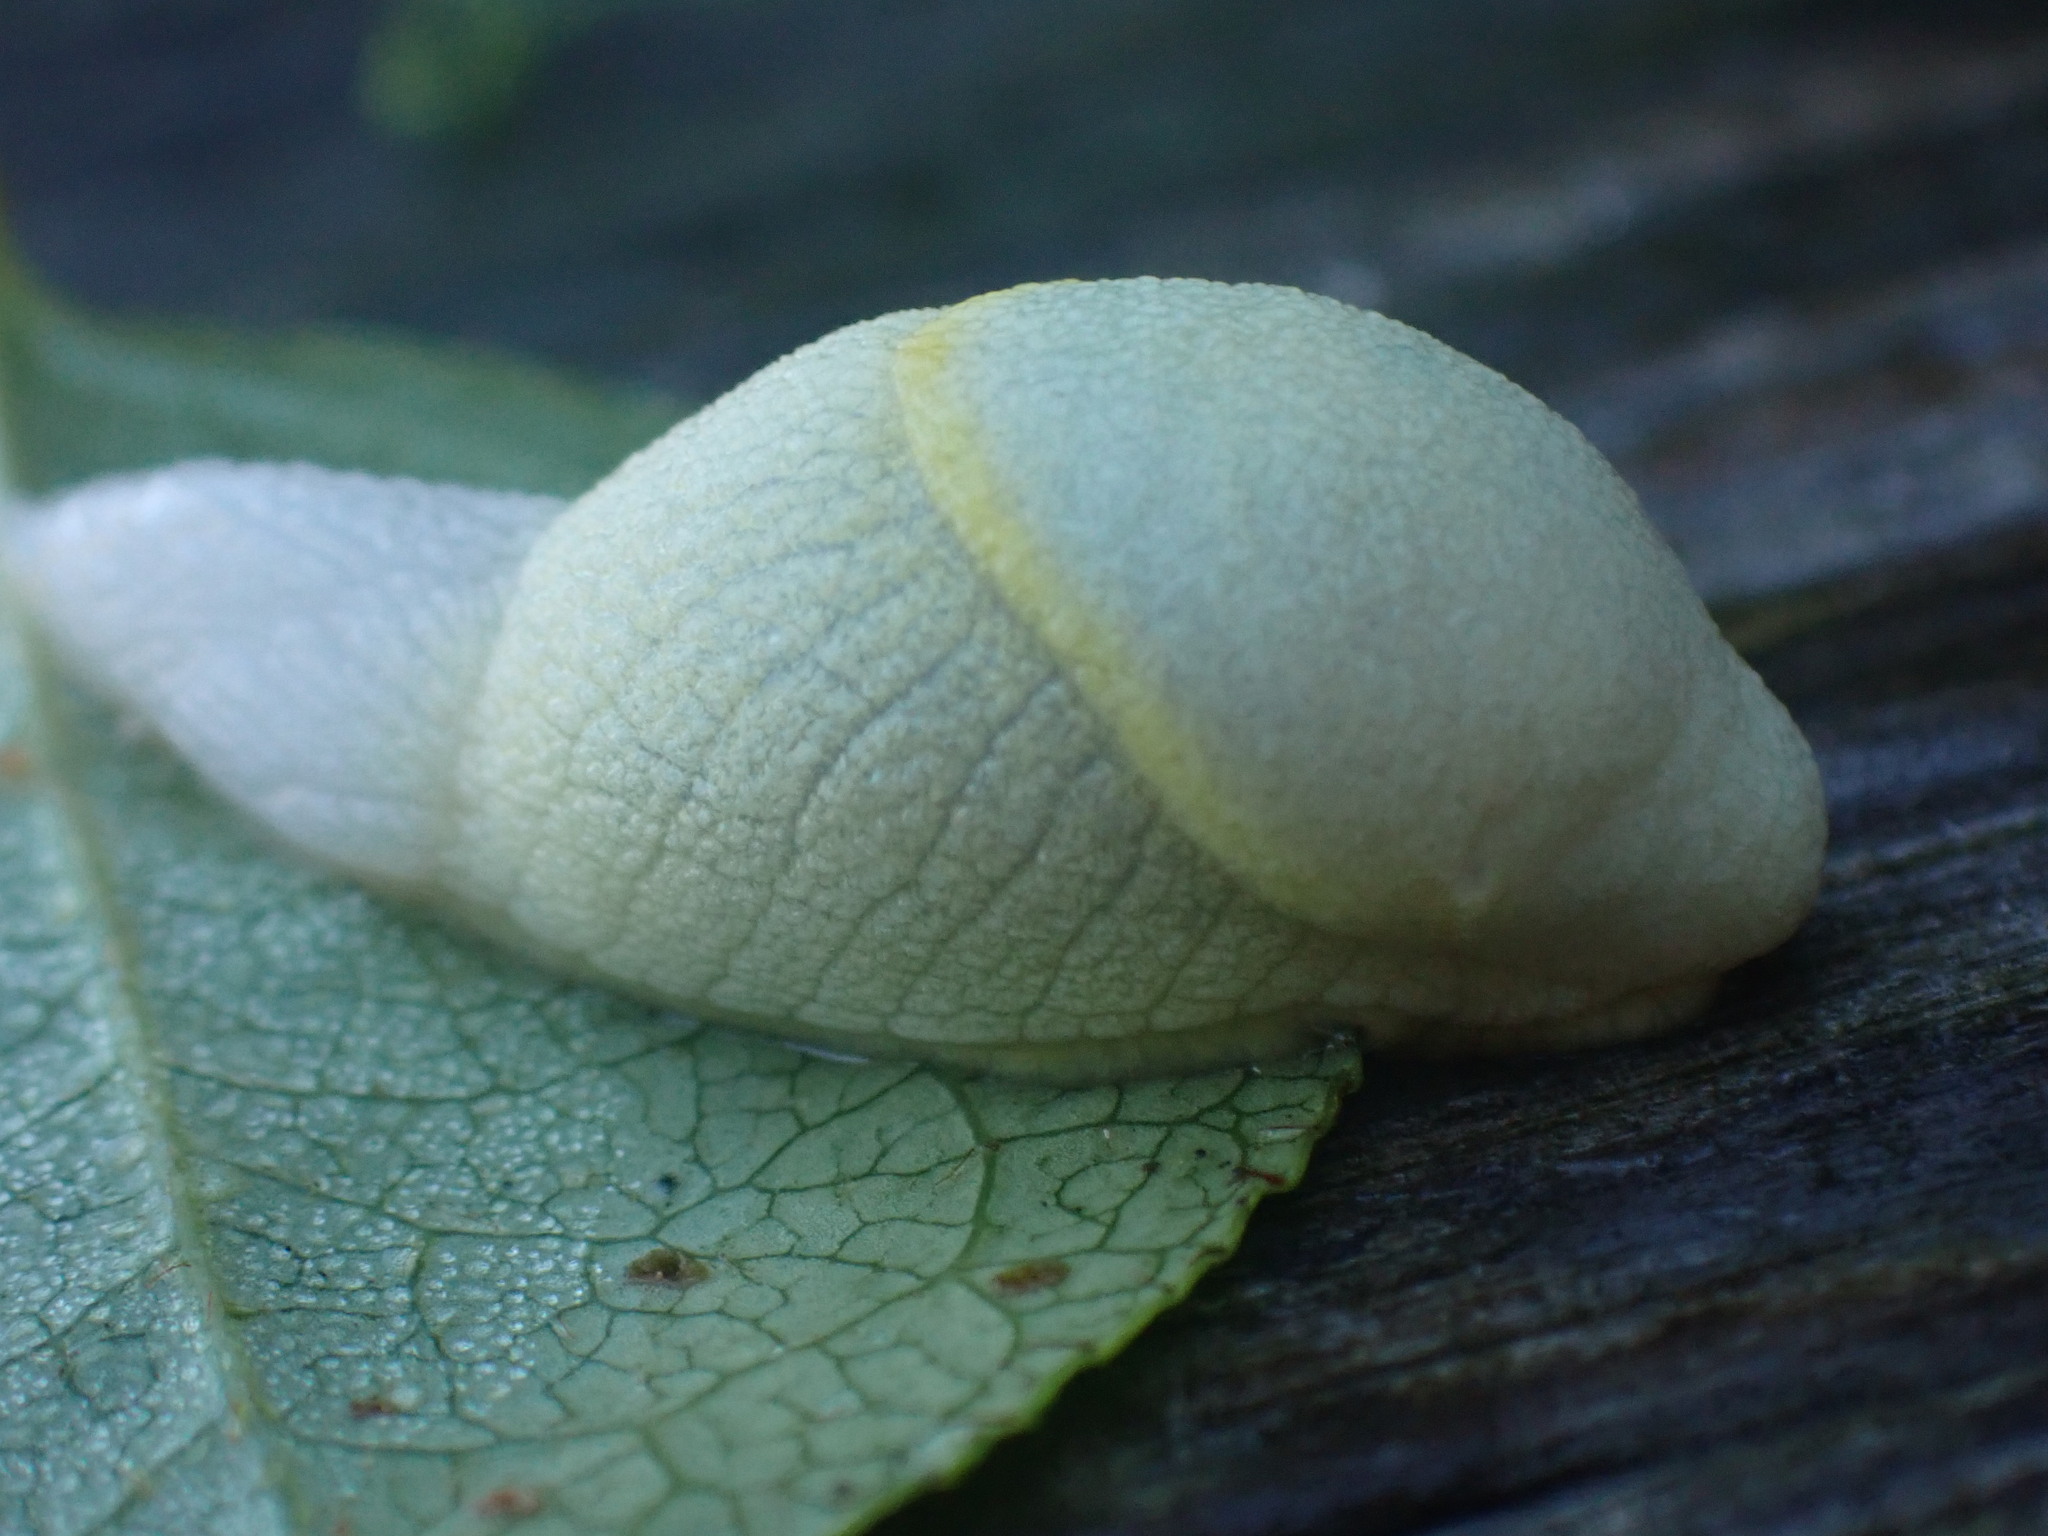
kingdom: Animalia
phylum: Mollusca
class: Gastropoda
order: Stylommatophora
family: Ariolimacidae
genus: Prophysaon
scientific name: Prophysaon foliolatum
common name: Yellow-bordered taildropper
